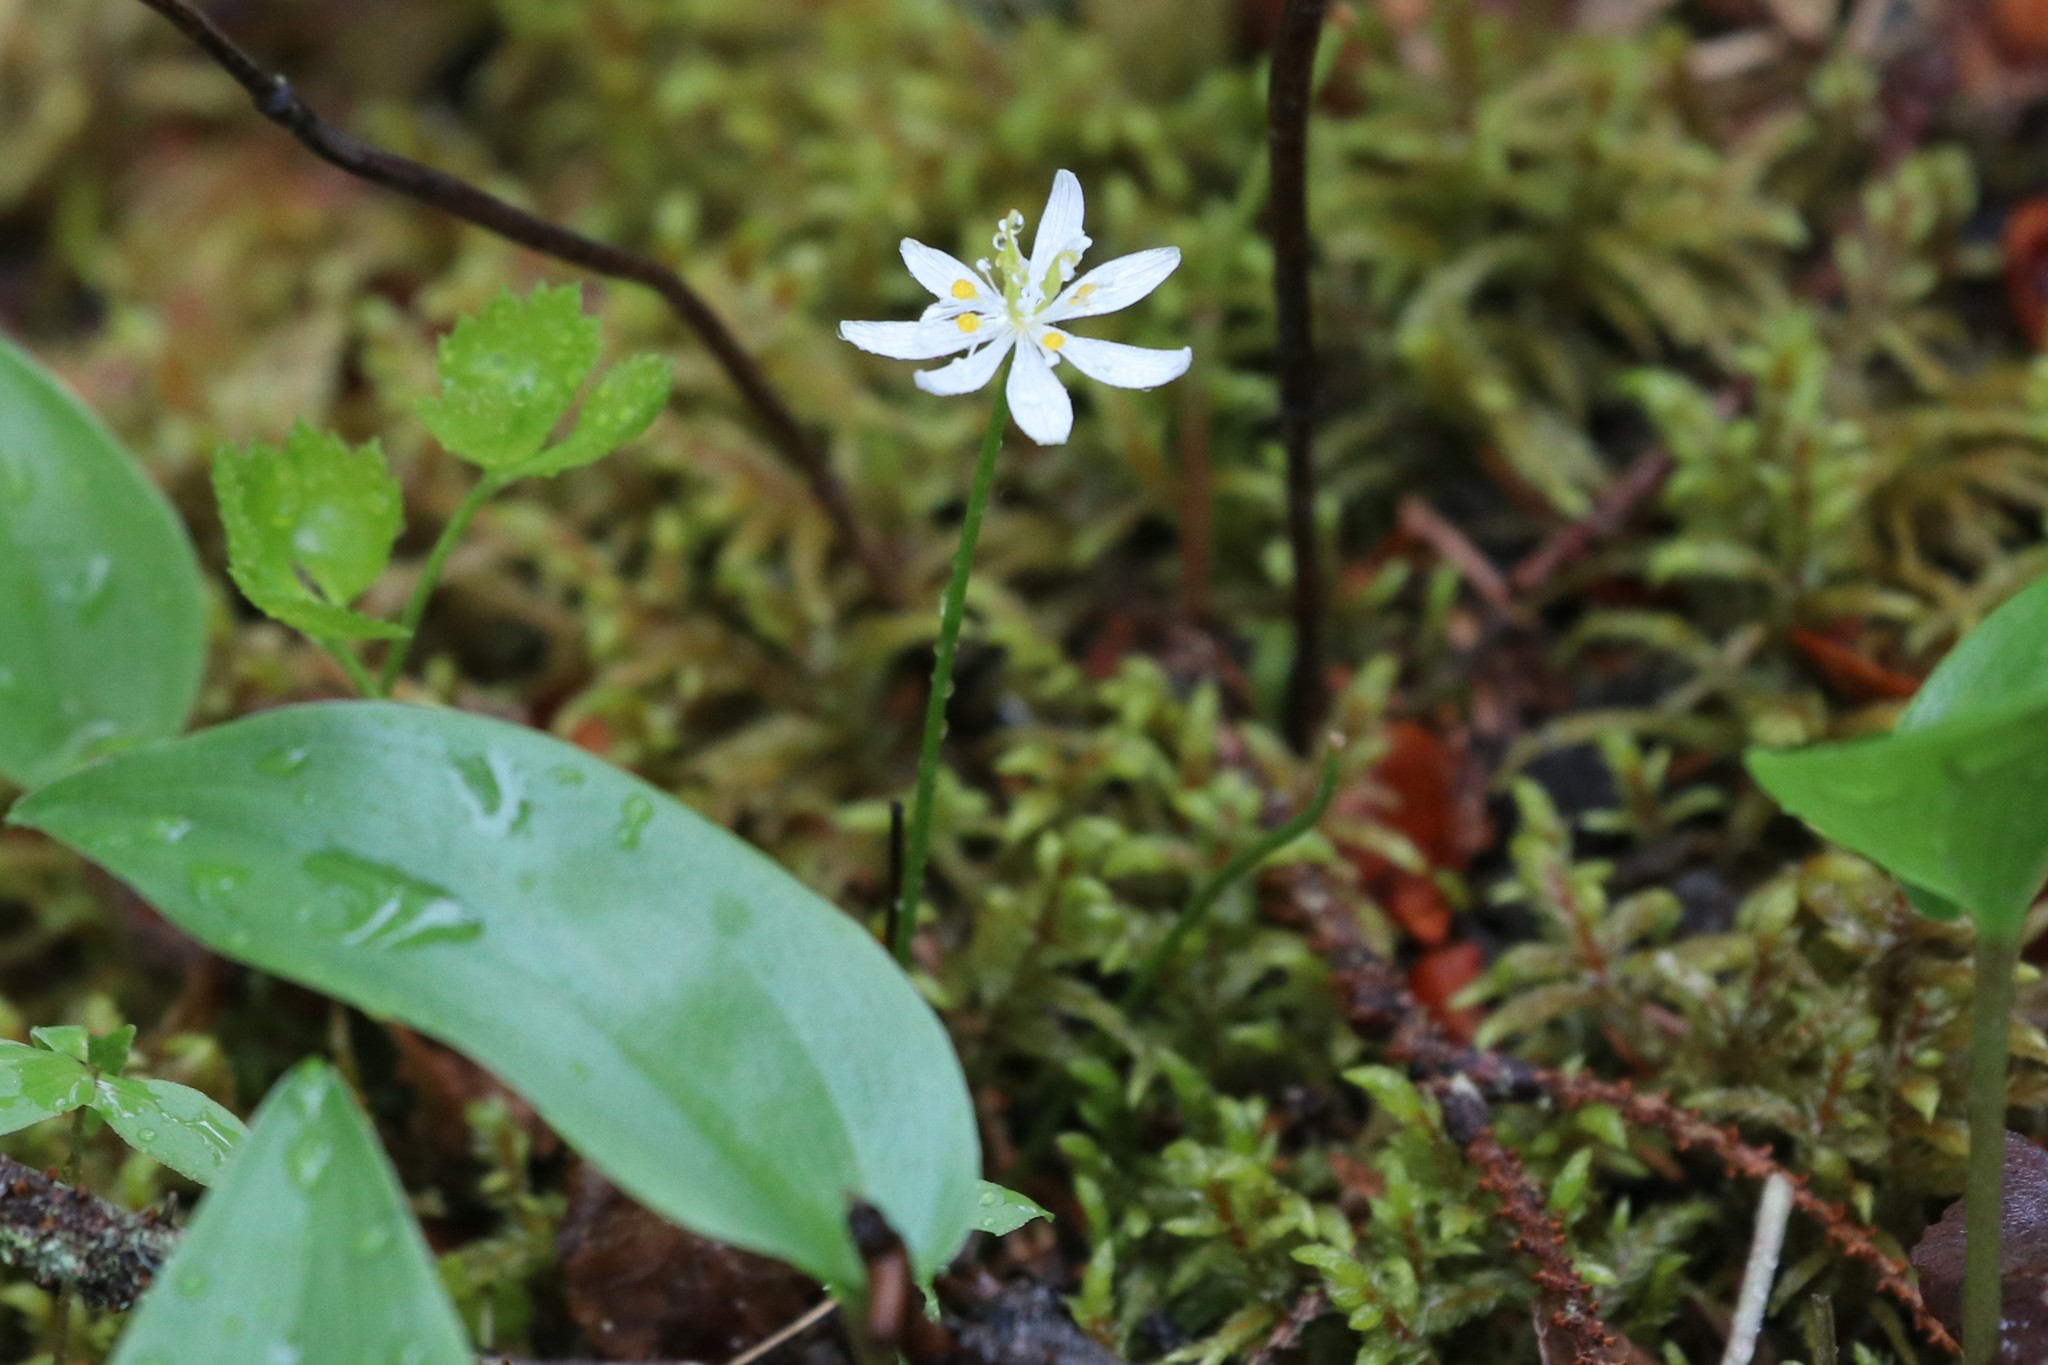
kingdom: Plantae
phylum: Tracheophyta
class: Magnoliopsida
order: Ranunculales
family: Ranunculaceae
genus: Coptis
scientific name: Coptis trifolia
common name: Canker-root
